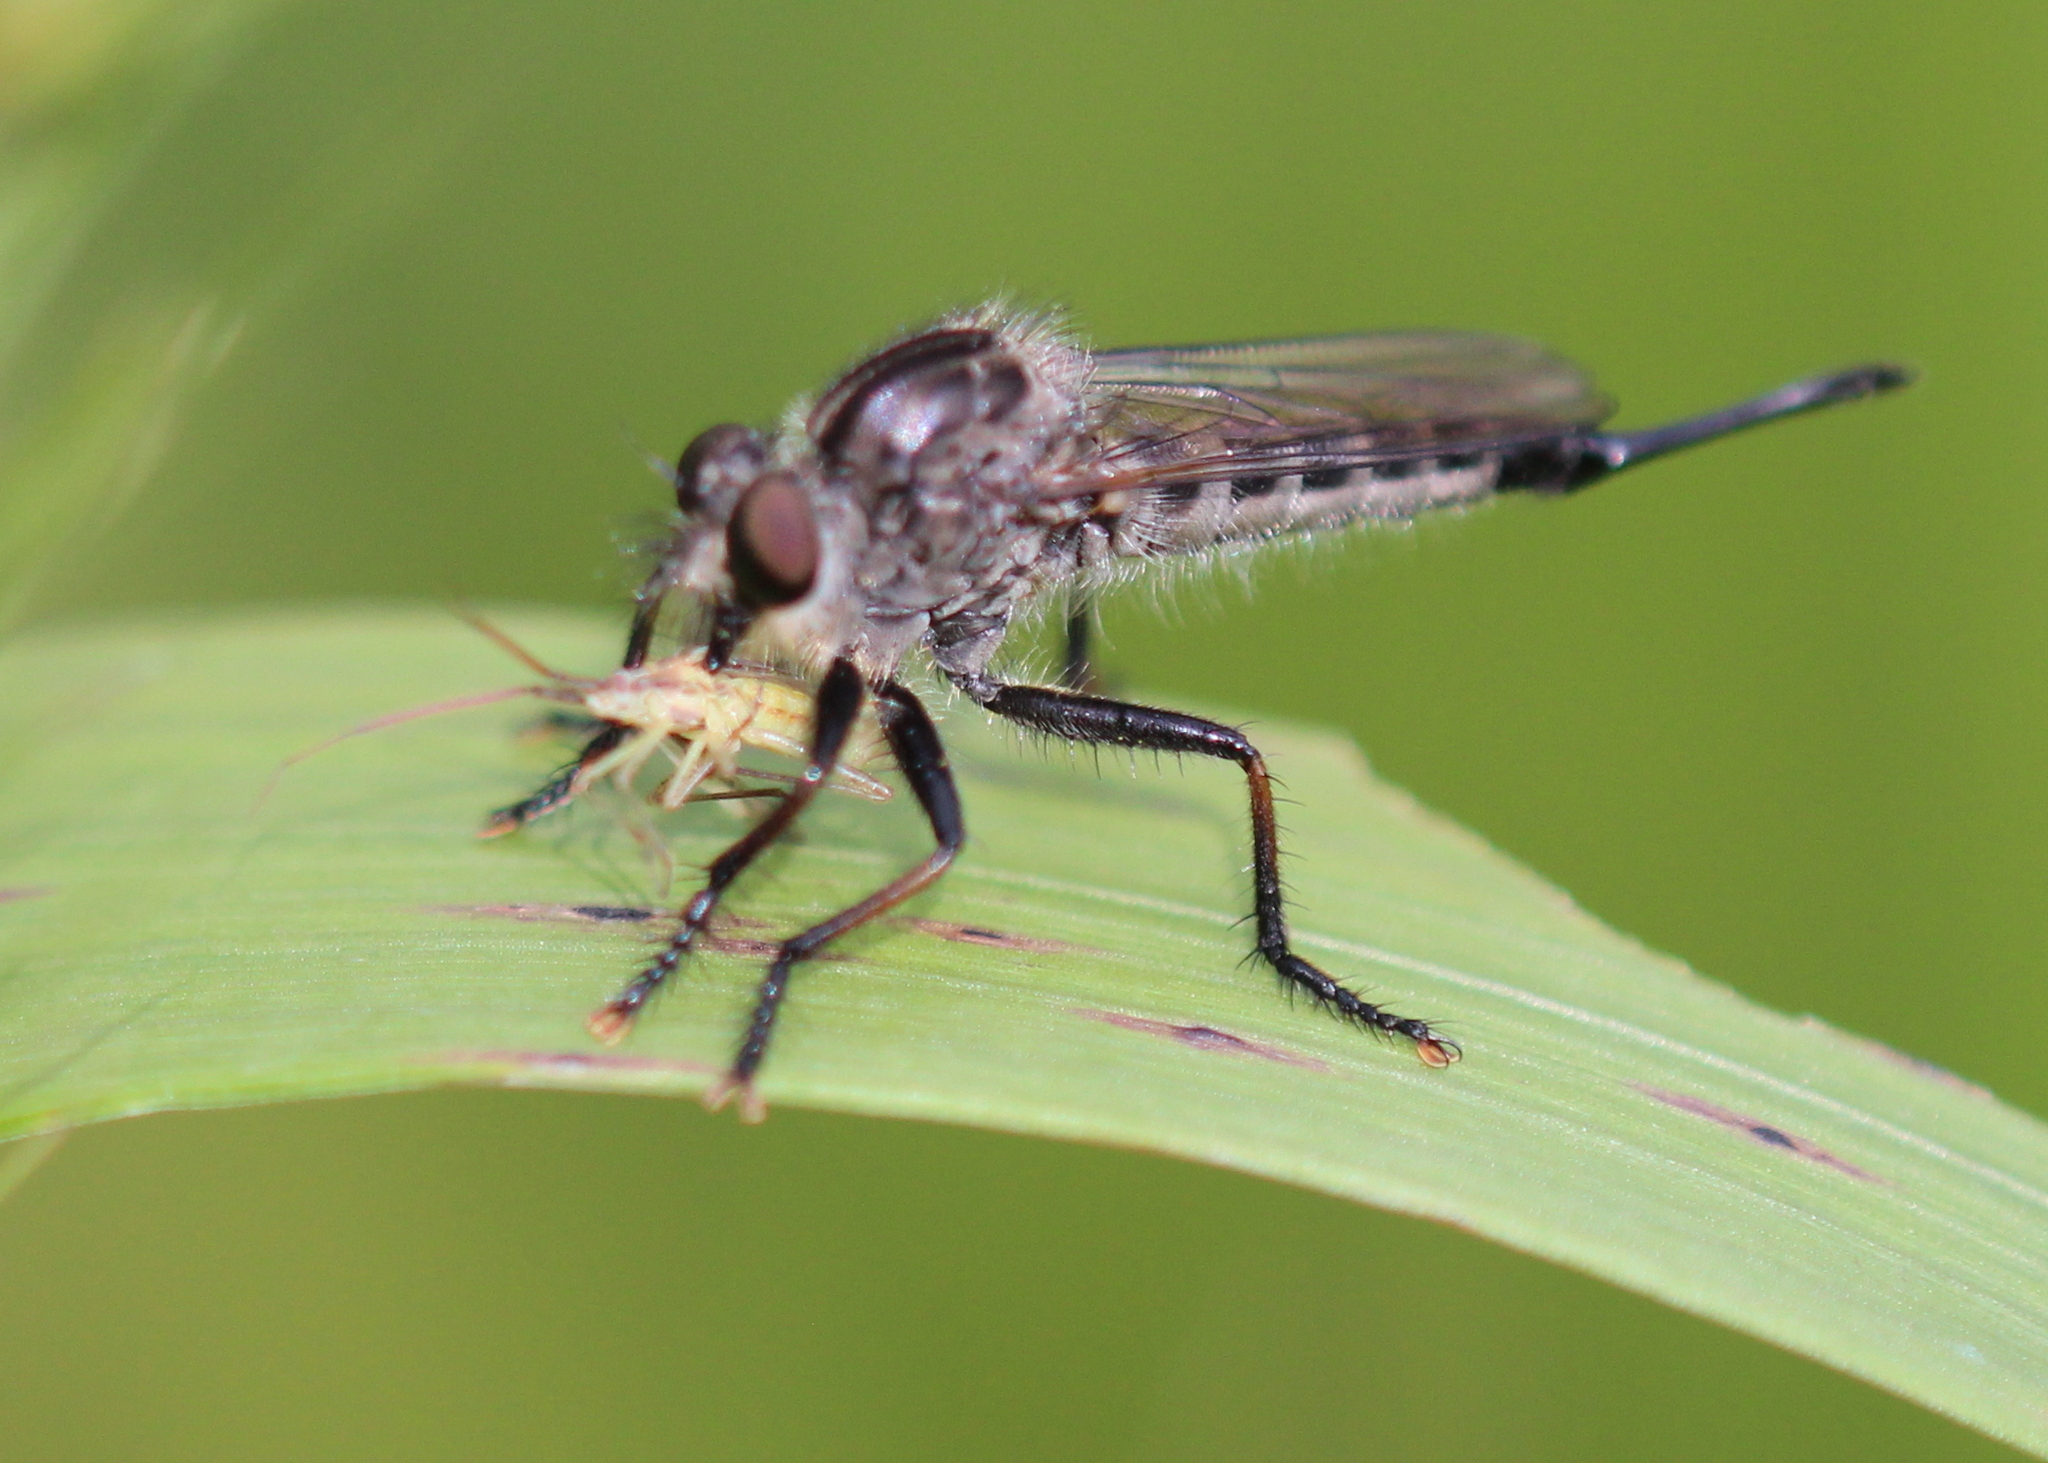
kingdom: Animalia
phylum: Arthropoda
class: Insecta
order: Diptera
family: Asilidae
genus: Efferia
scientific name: Efferia aestuans
